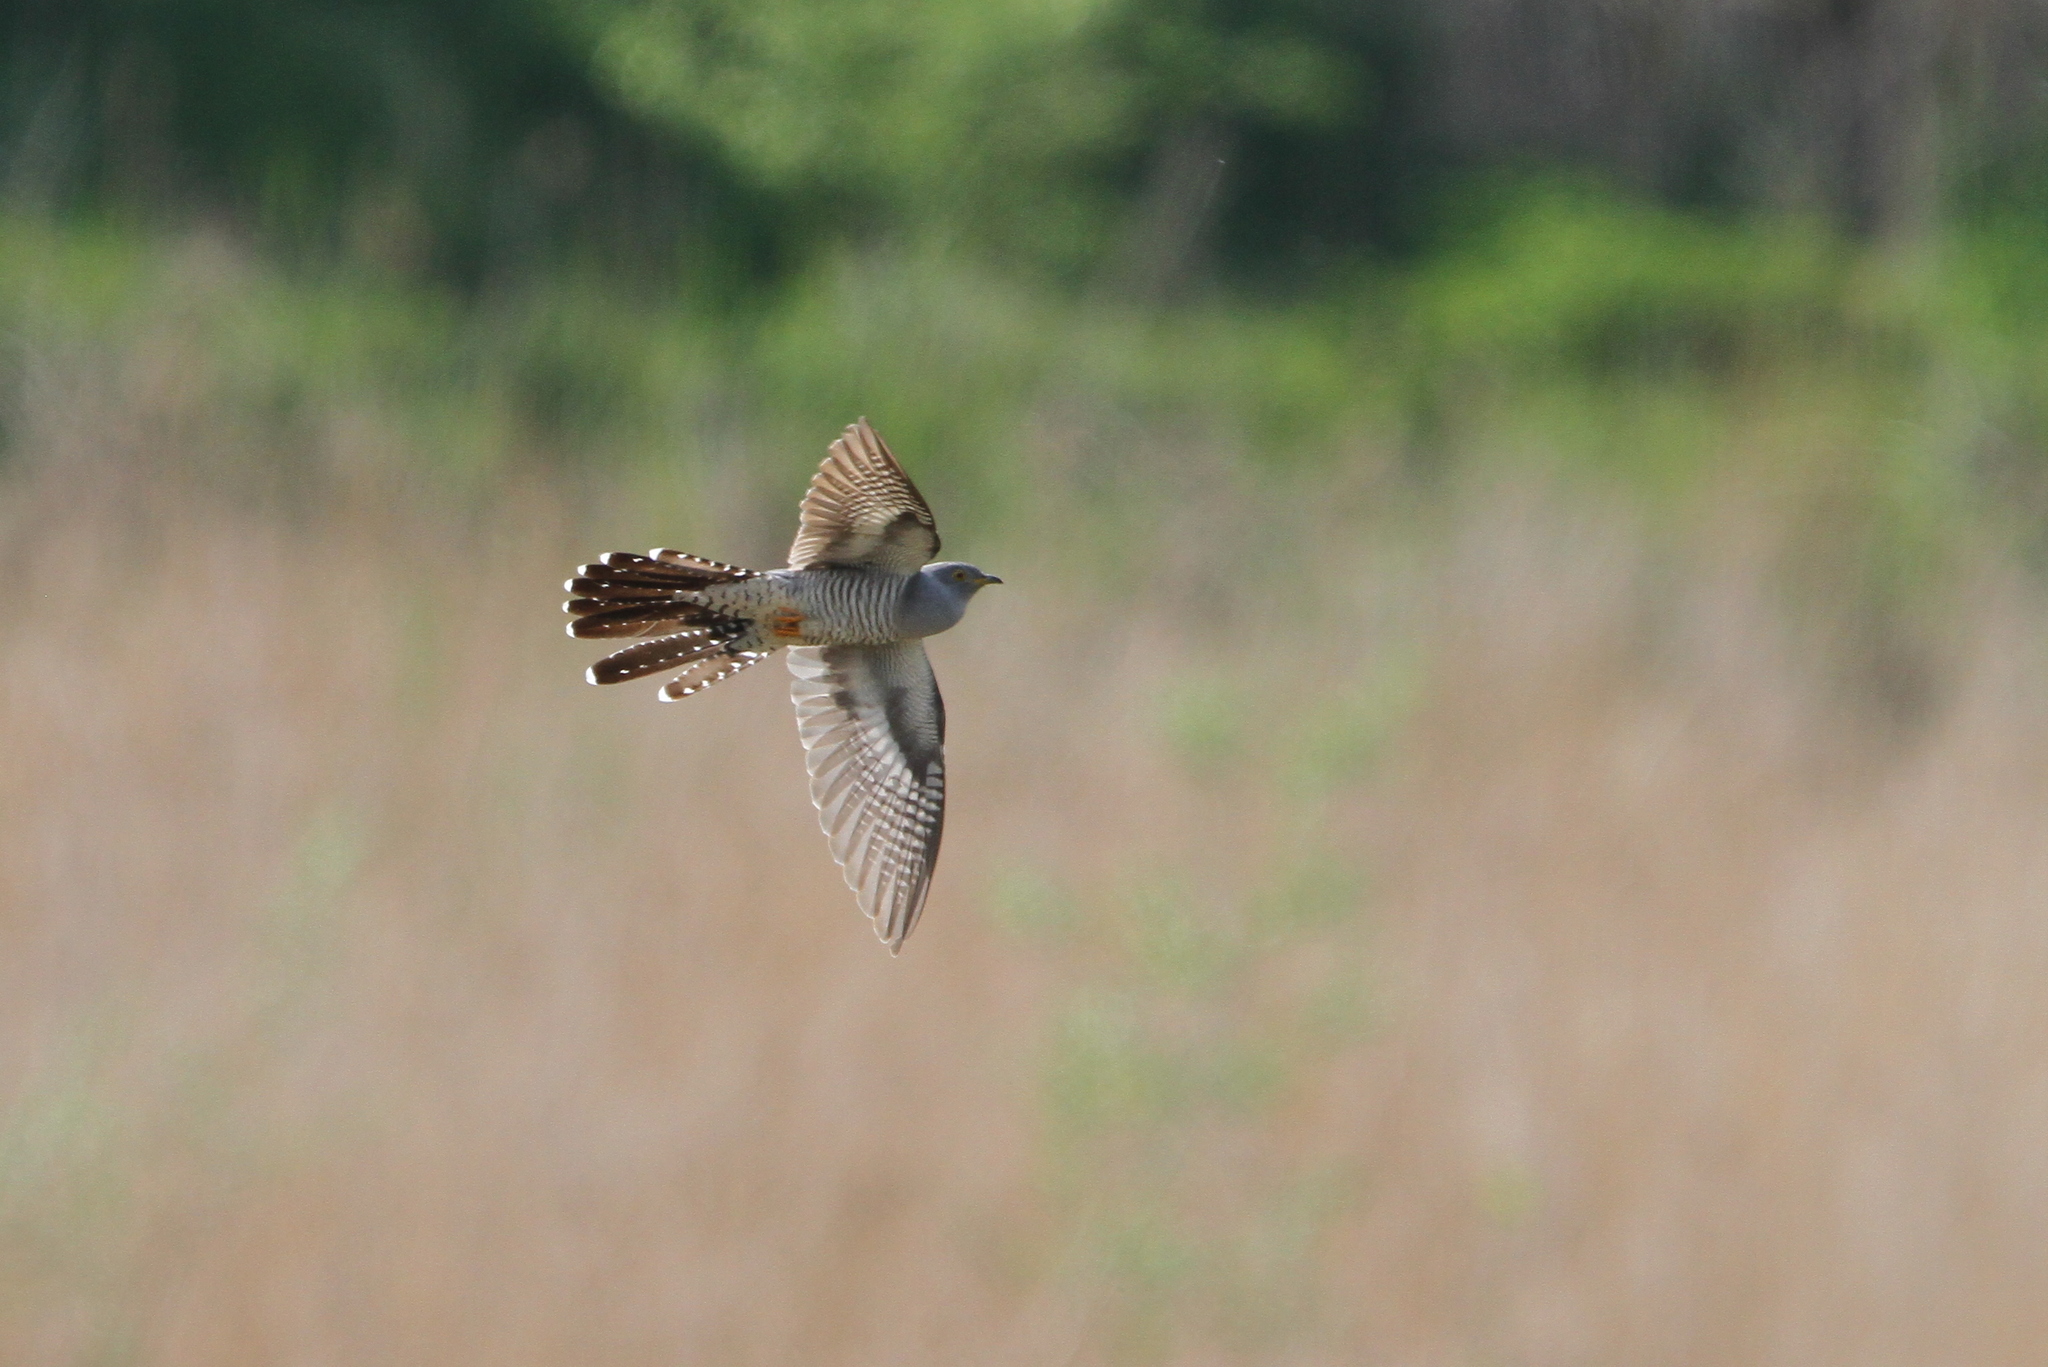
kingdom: Animalia
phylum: Chordata
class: Aves
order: Cuculiformes
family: Cuculidae
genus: Cuculus
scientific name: Cuculus canorus
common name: Common cuckoo
